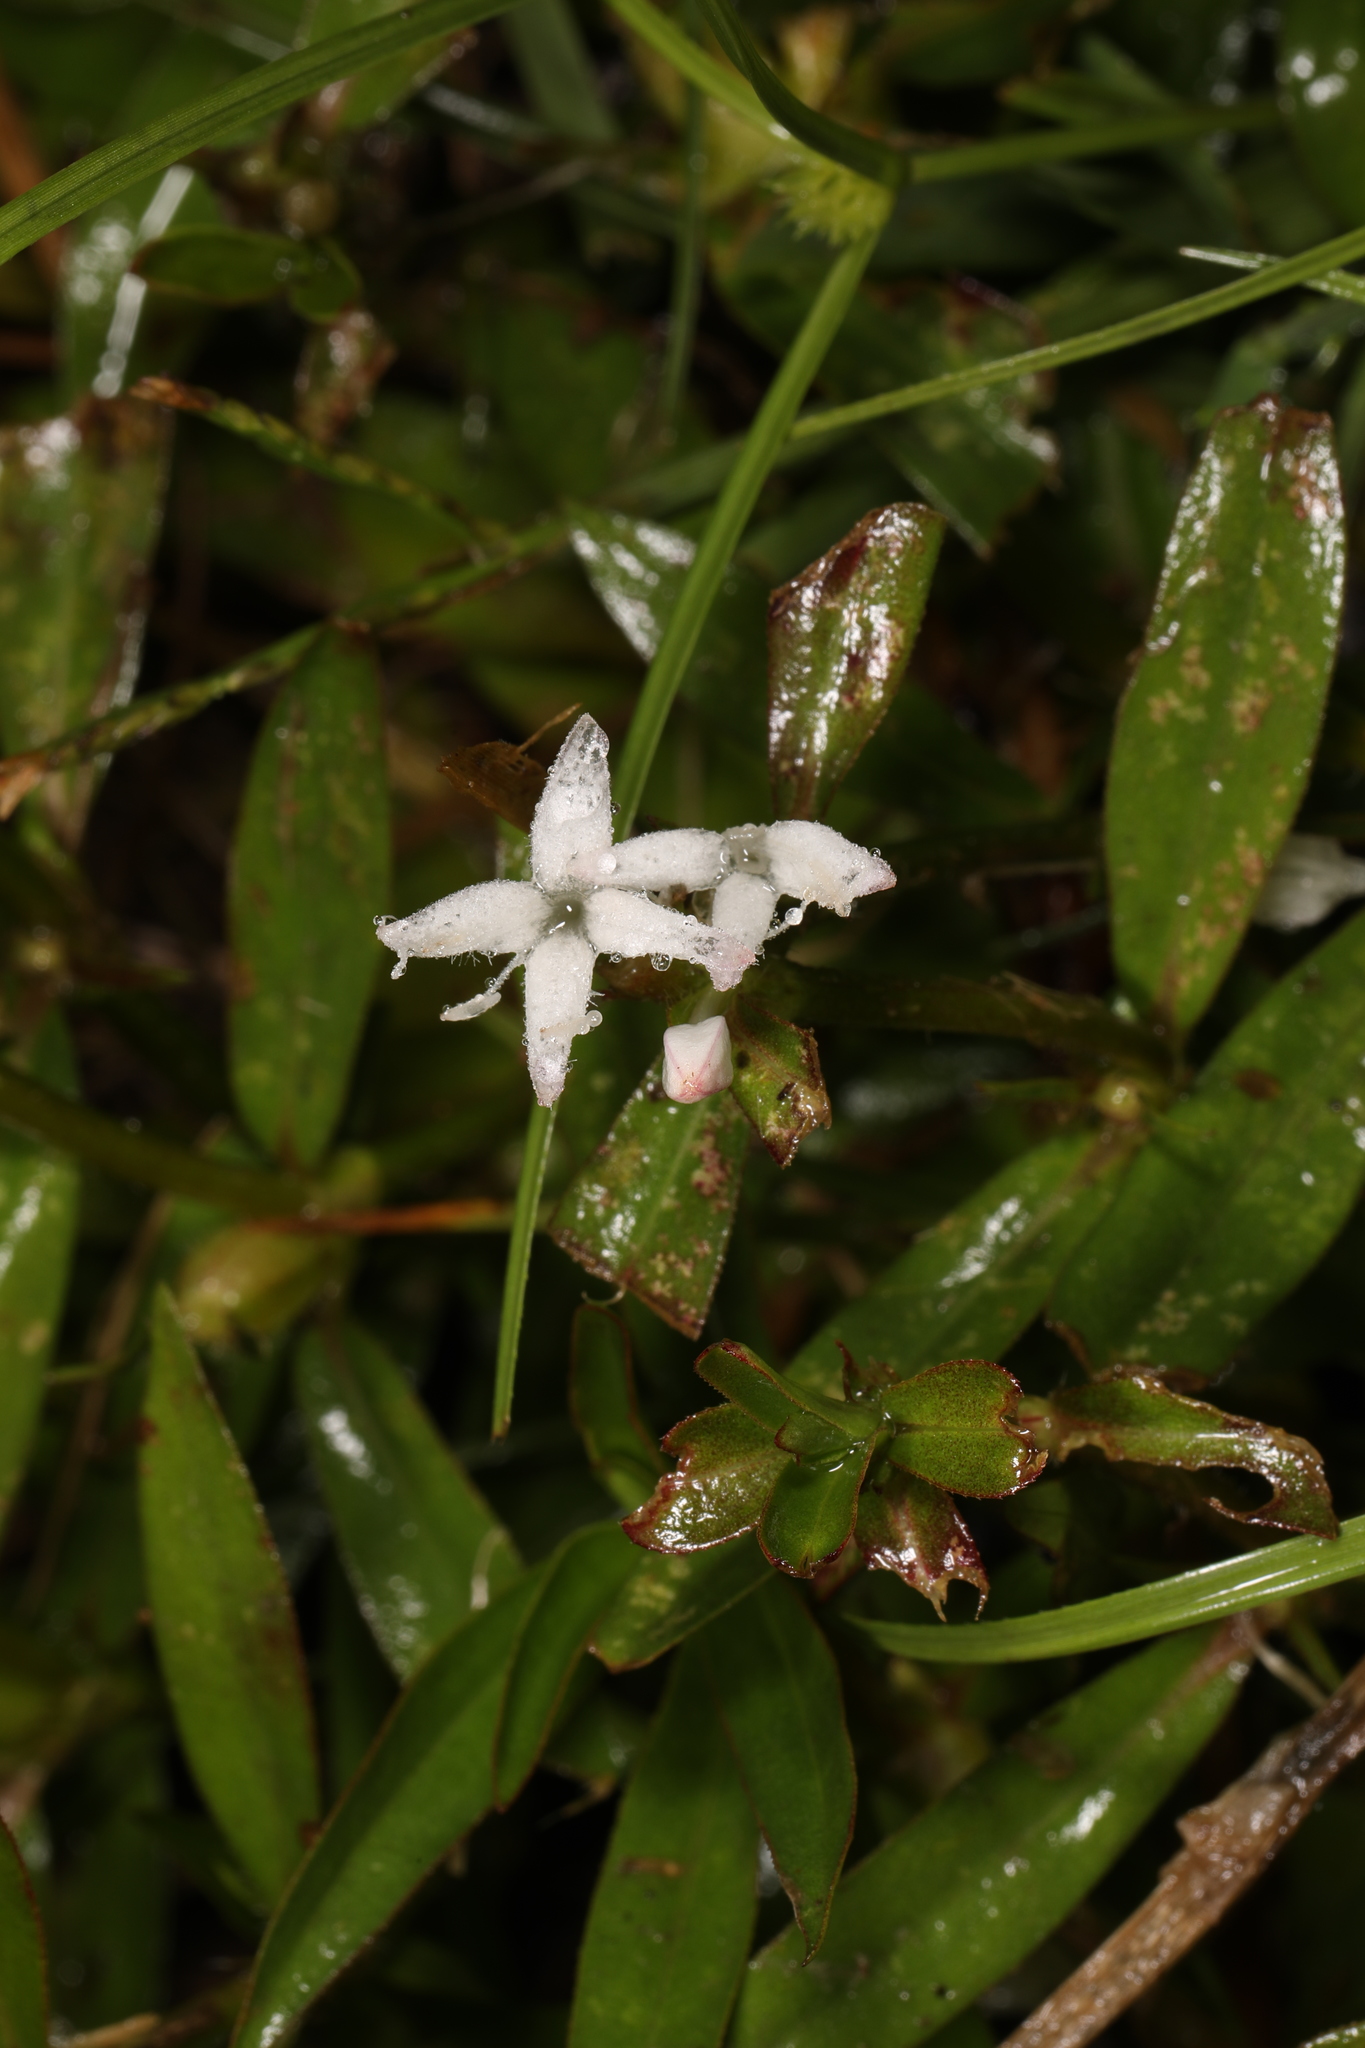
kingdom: Plantae
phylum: Tracheophyta
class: Magnoliopsida
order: Gentianales
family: Rubiaceae
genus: Diodia
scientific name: Diodia virginiana
